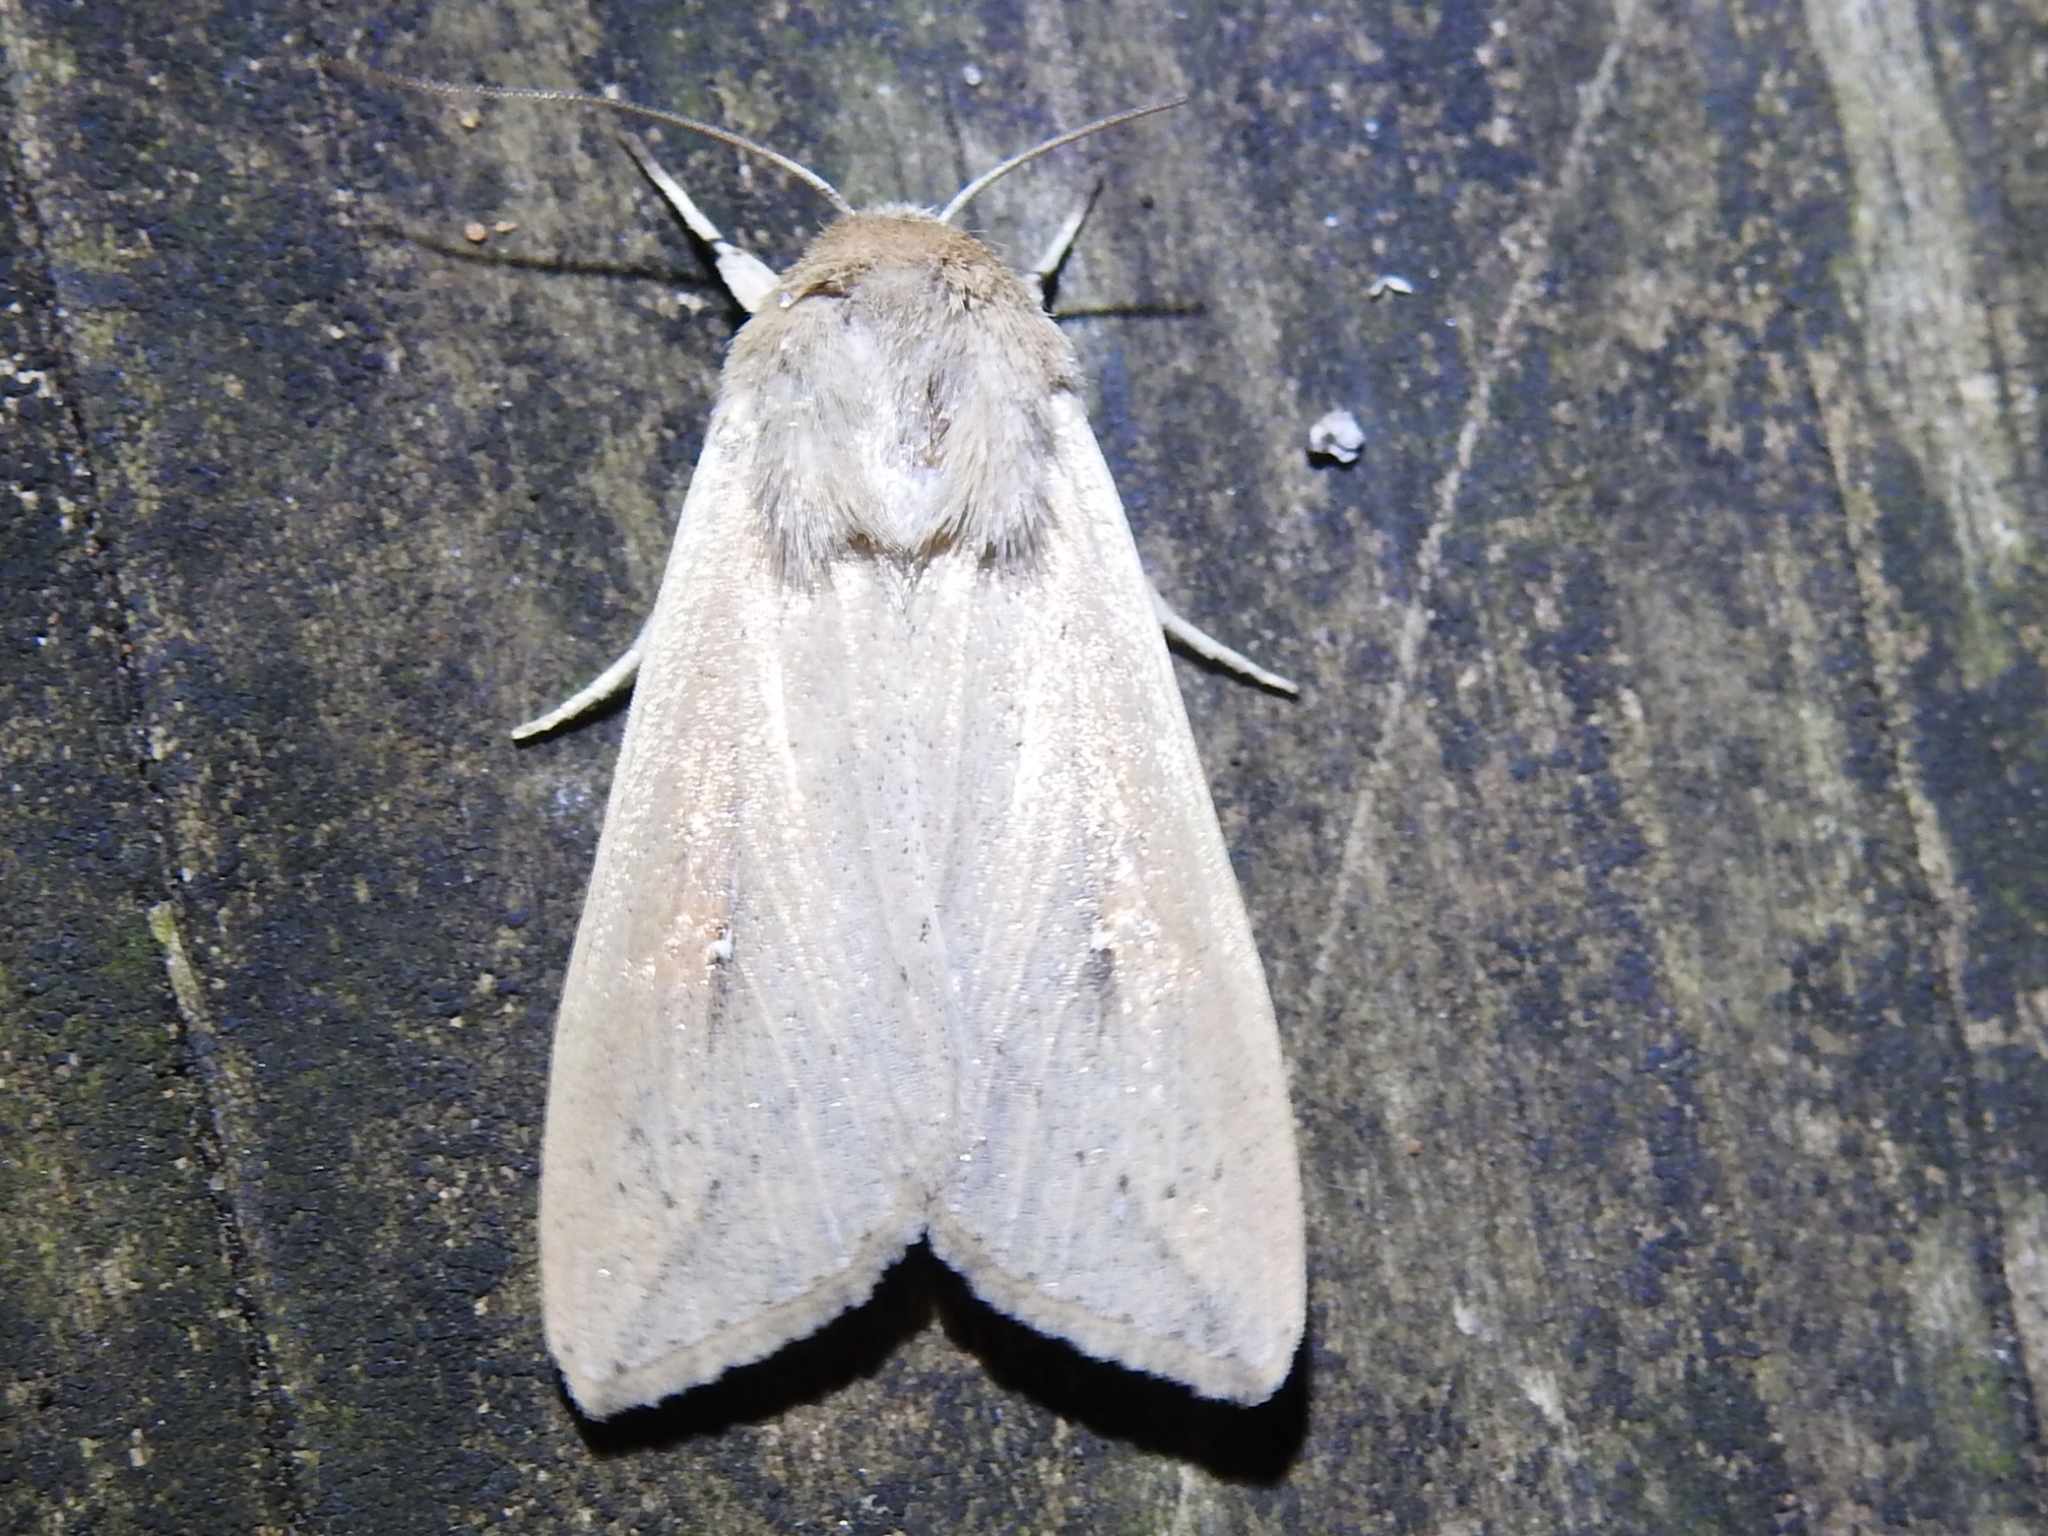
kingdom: Animalia
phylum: Arthropoda
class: Insecta
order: Lepidoptera
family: Noctuidae
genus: Mythimna
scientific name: Mythimna unipuncta
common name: White-speck
